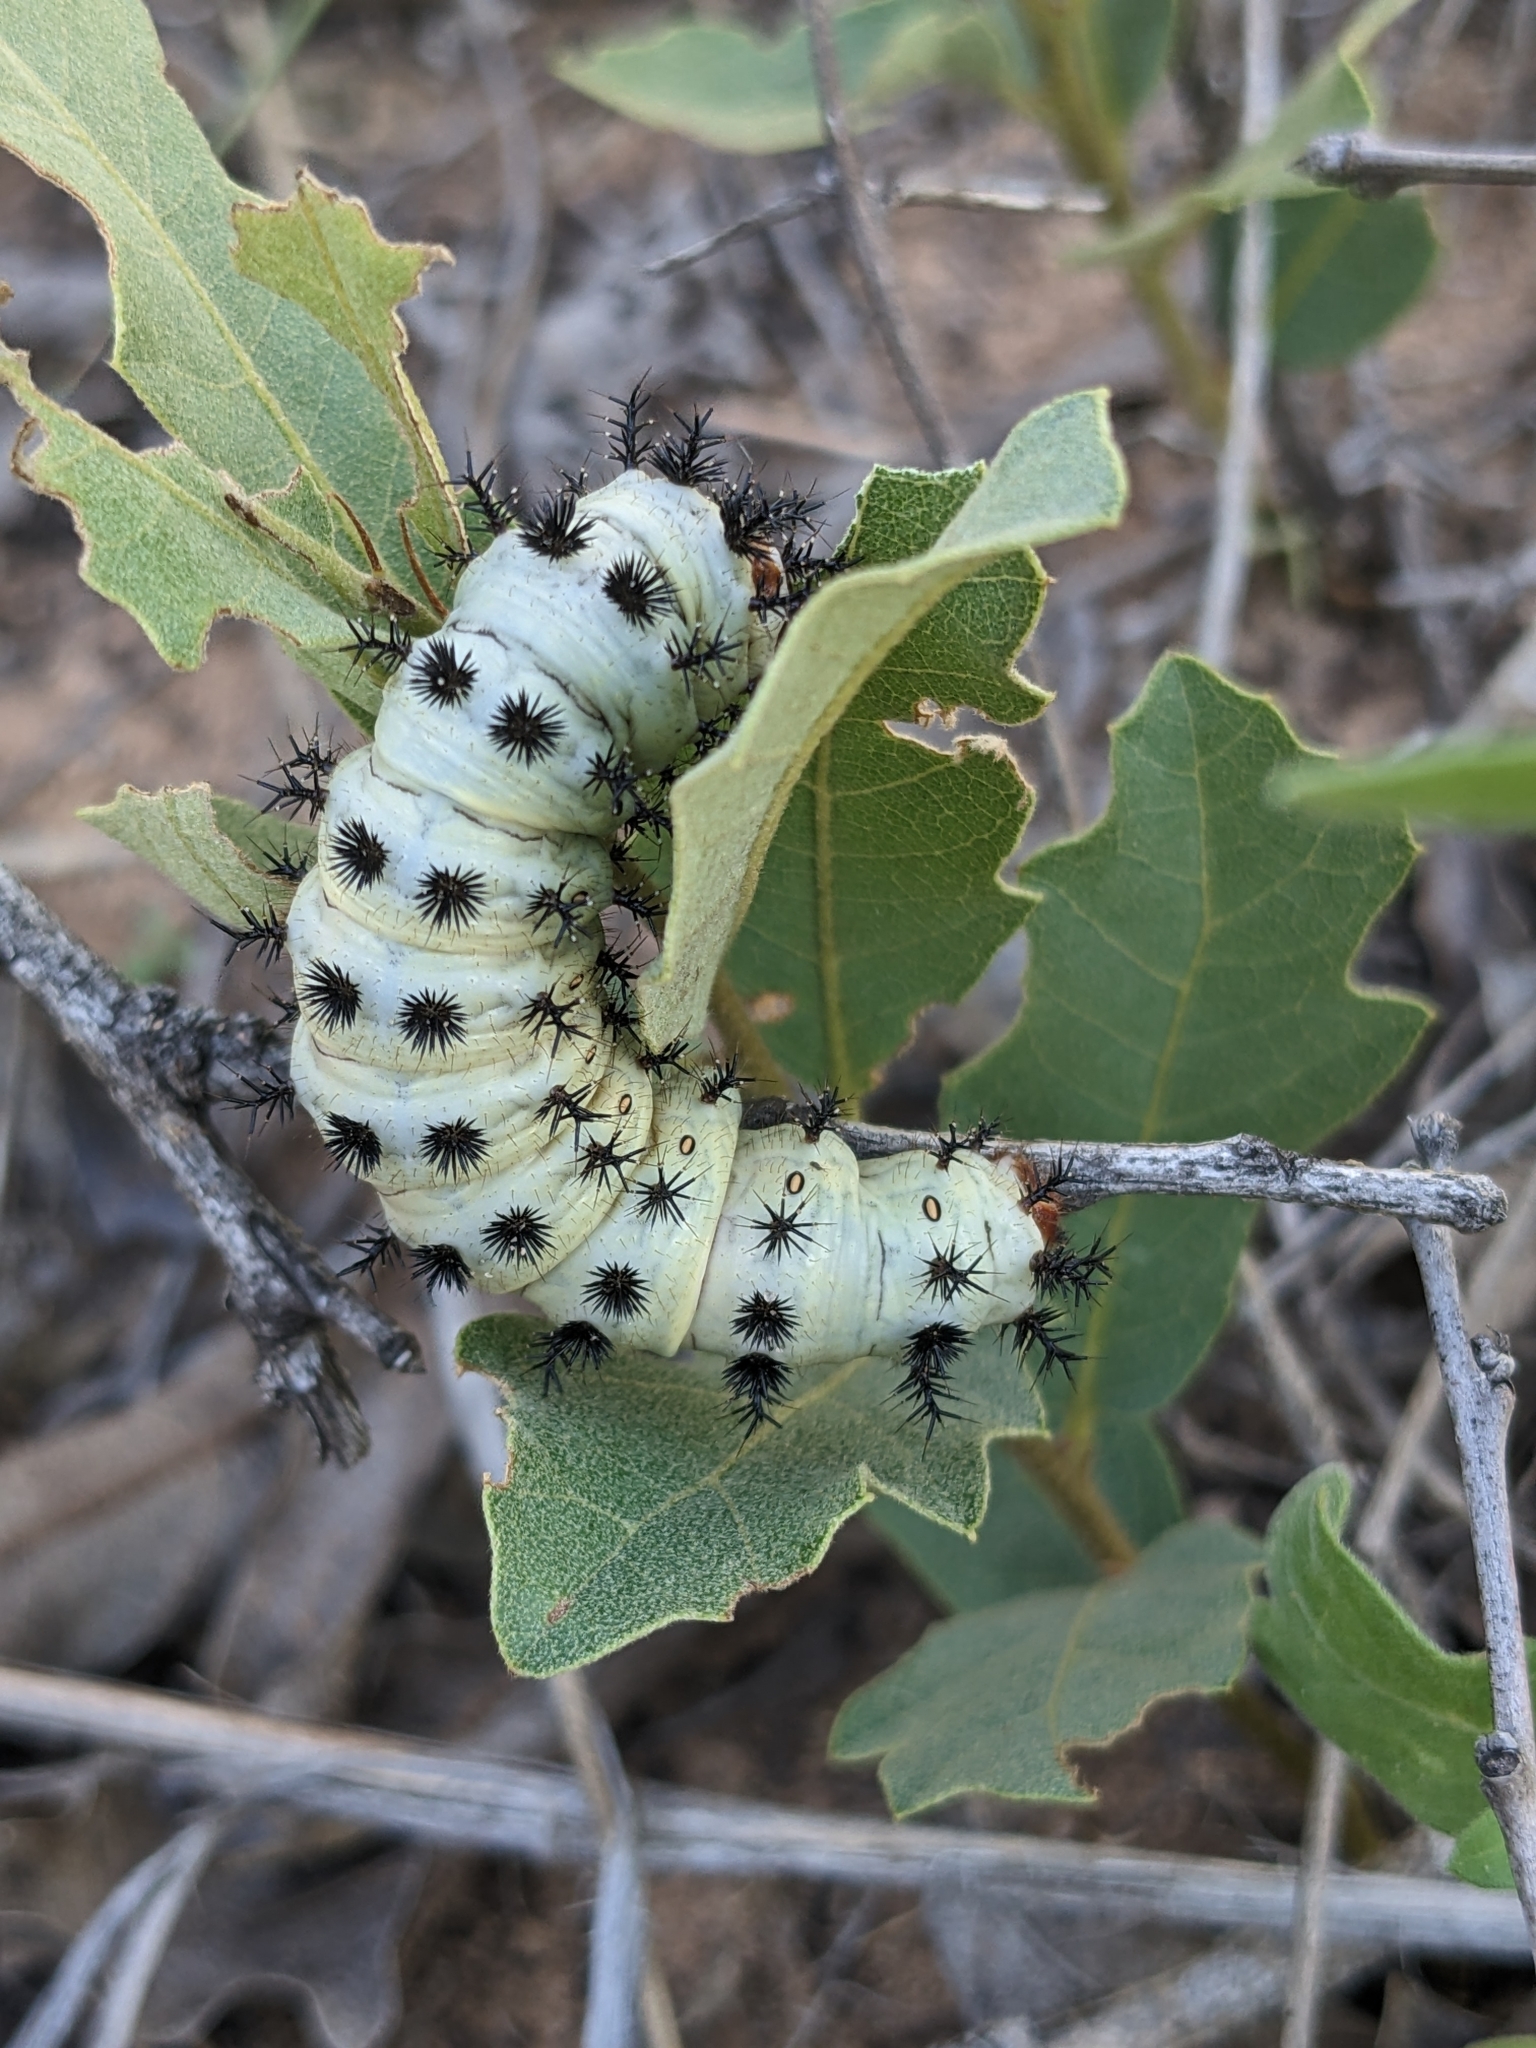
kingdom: Animalia
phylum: Arthropoda
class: Insecta
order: Lepidoptera
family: Saturniidae
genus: Hemileuca
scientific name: Hemileuca slosseri
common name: Slosser's buckmoth
